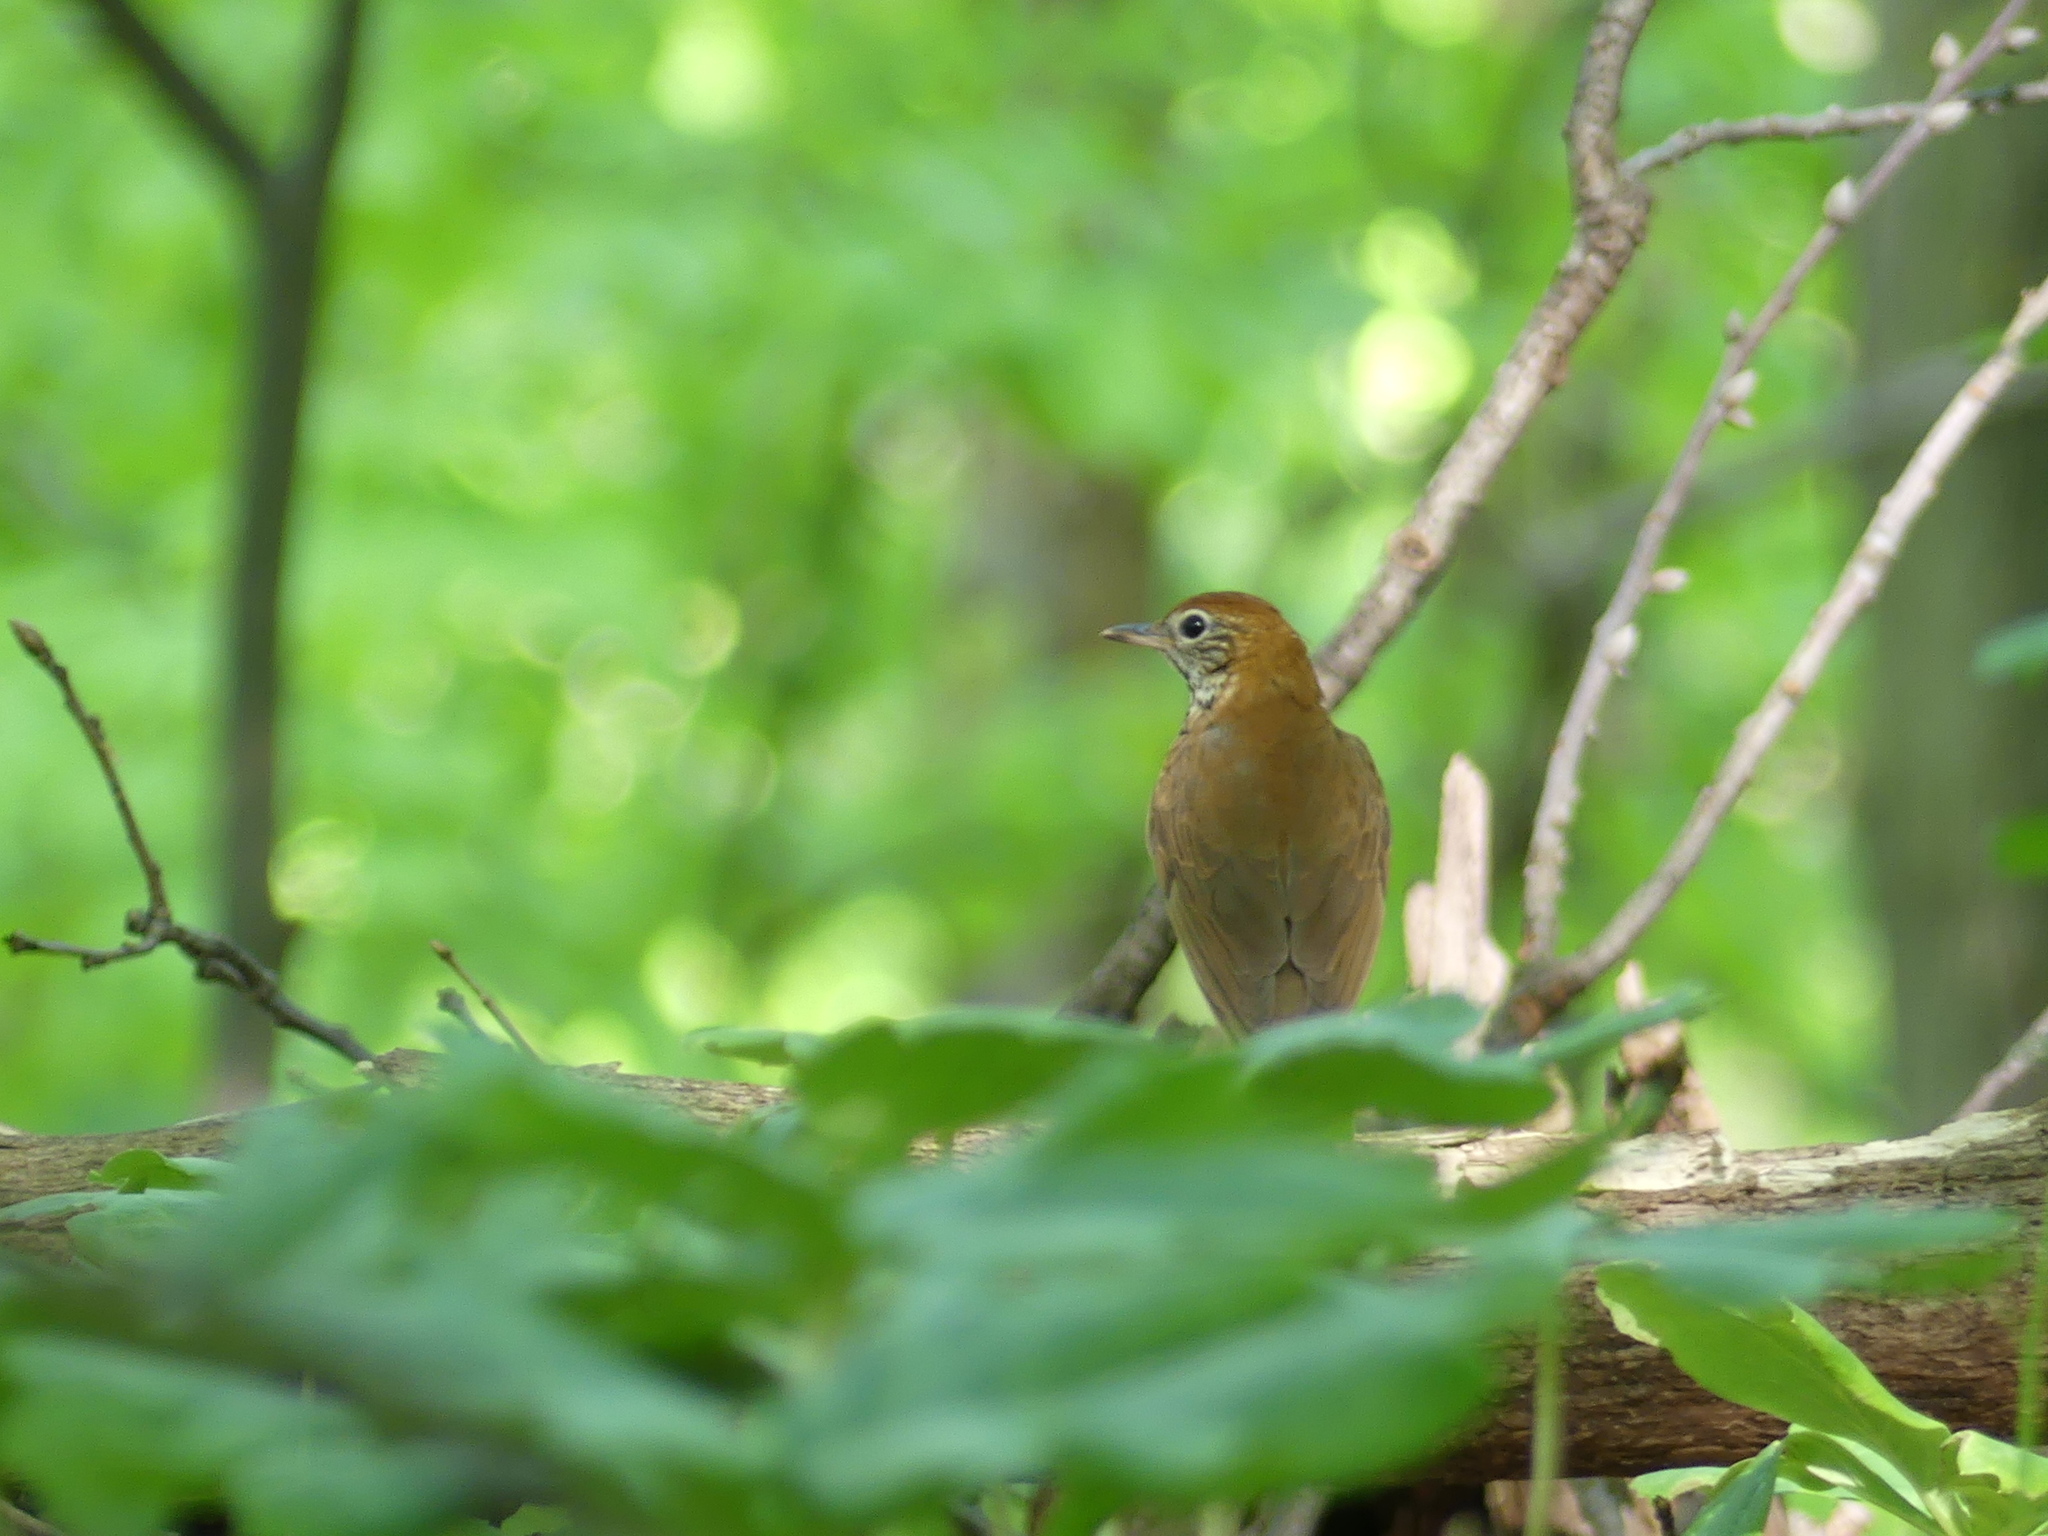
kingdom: Animalia
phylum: Chordata
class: Aves
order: Passeriformes
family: Turdidae
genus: Hylocichla
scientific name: Hylocichla mustelina
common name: Wood thrush
